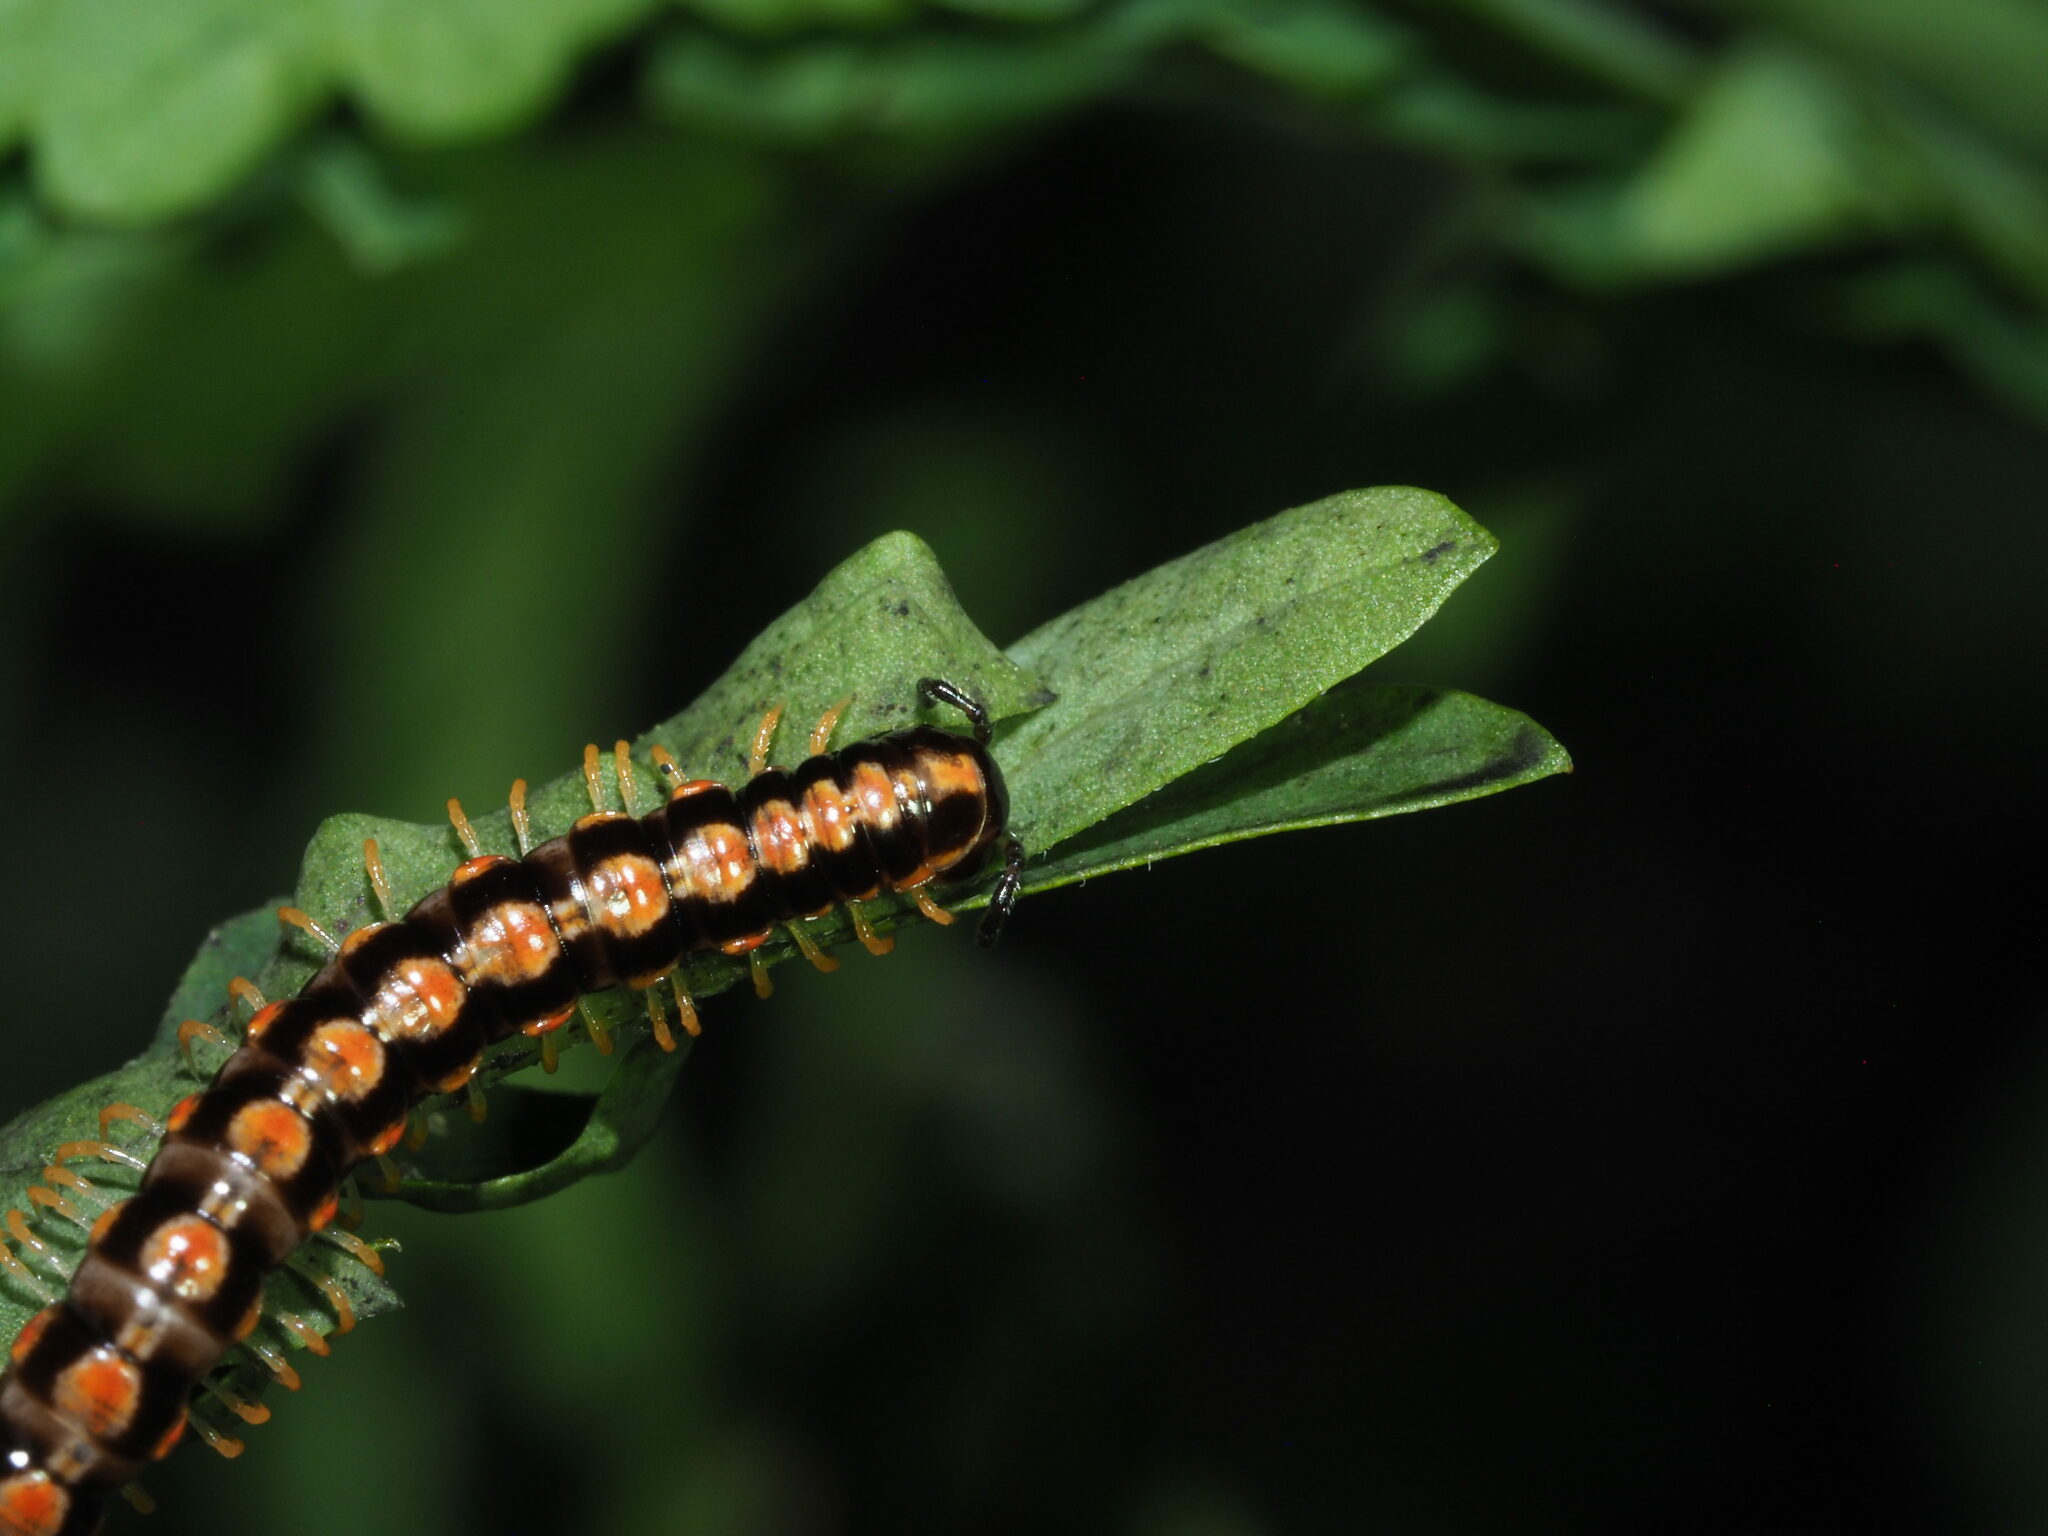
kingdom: Animalia
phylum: Arthropoda
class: Diplopoda
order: Polydesmida
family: Paradoxosomatidae
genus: Helicorthomorpha
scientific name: Helicorthomorpha holstii
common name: Millipede
